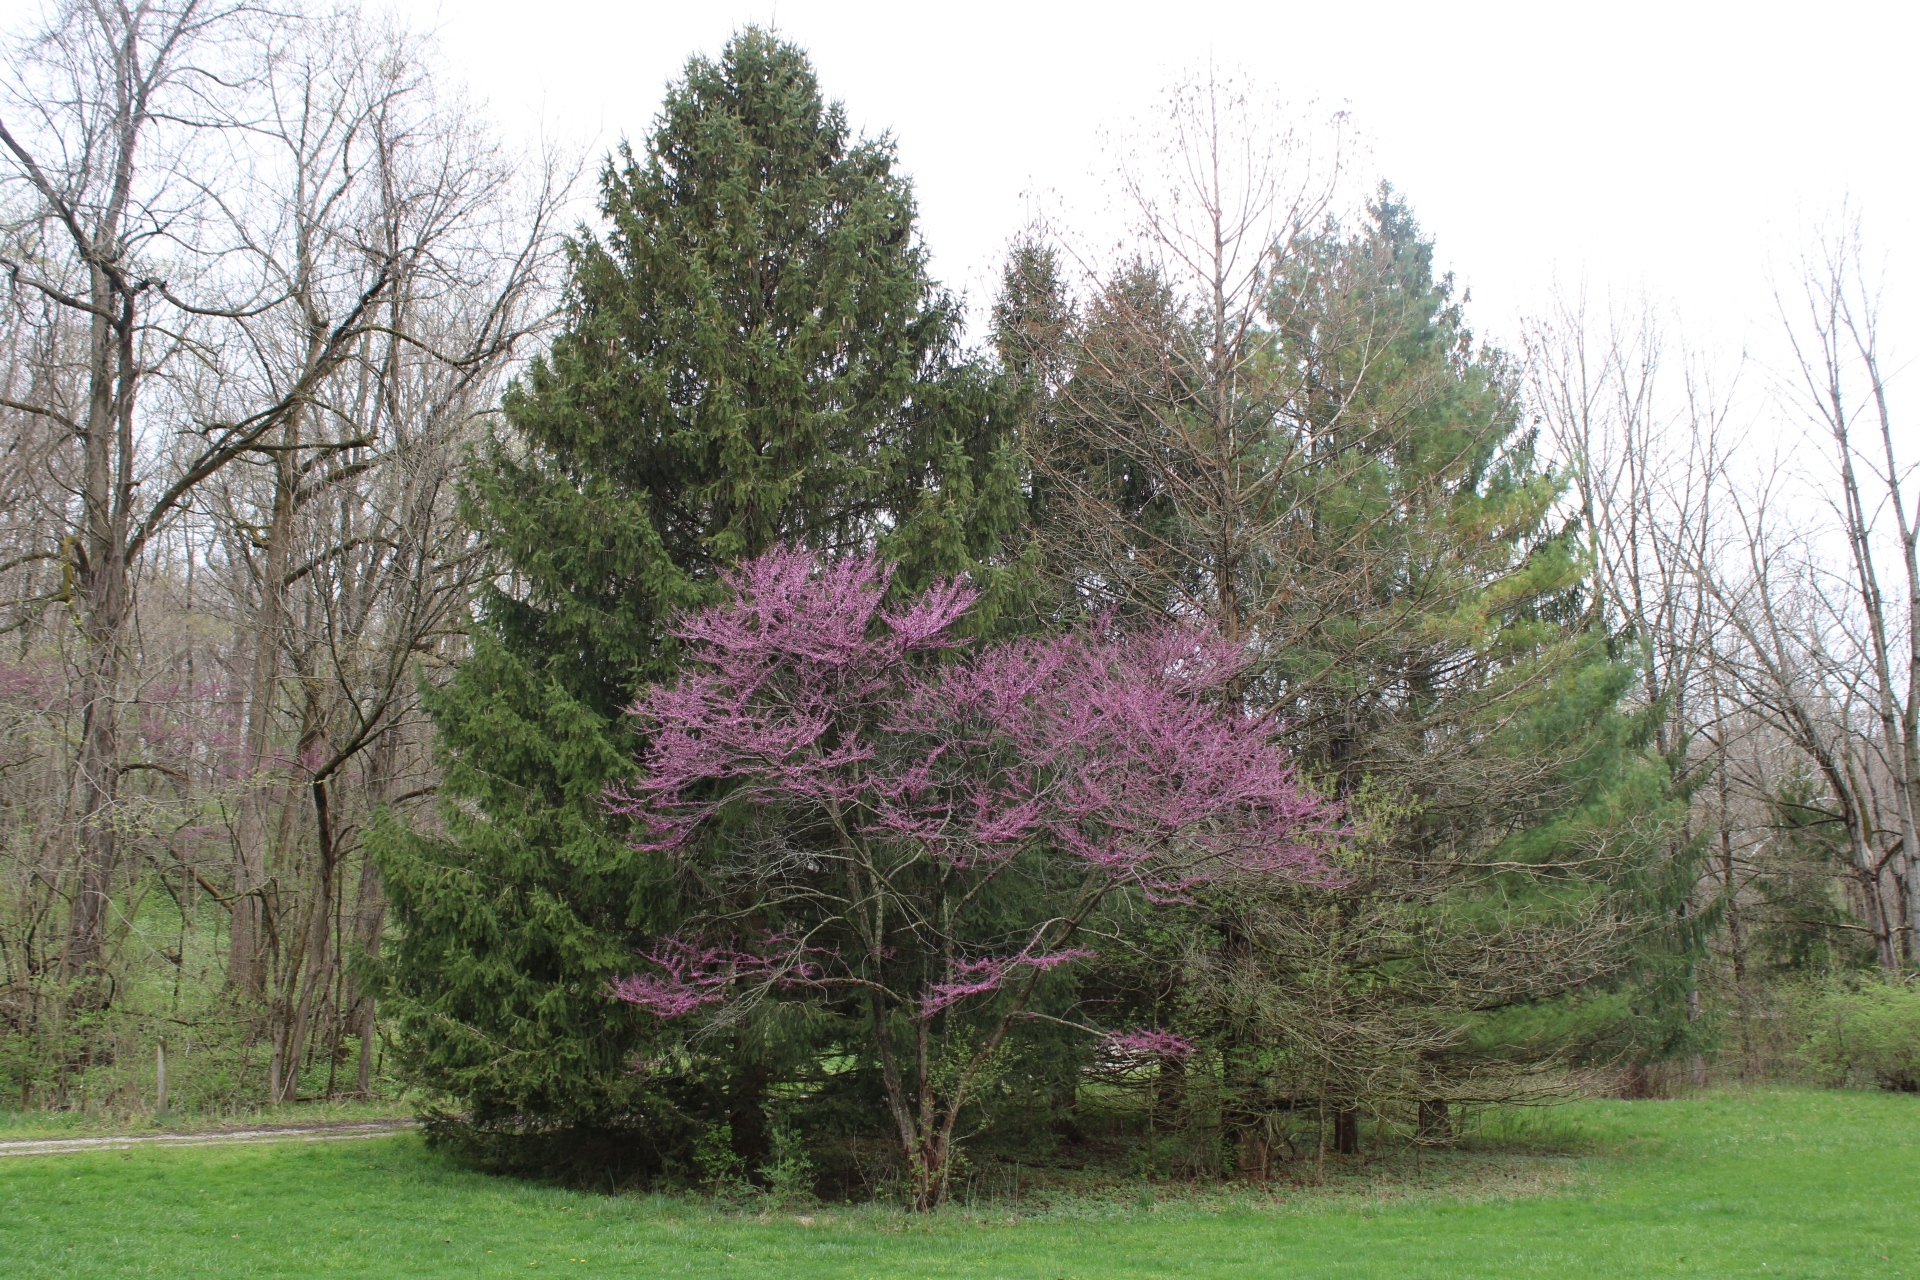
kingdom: Plantae
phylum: Tracheophyta
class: Magnoliopsida
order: Fabales
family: Fabaceae
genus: Cercis
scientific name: Cercis canadensis
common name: Eastern redbud
